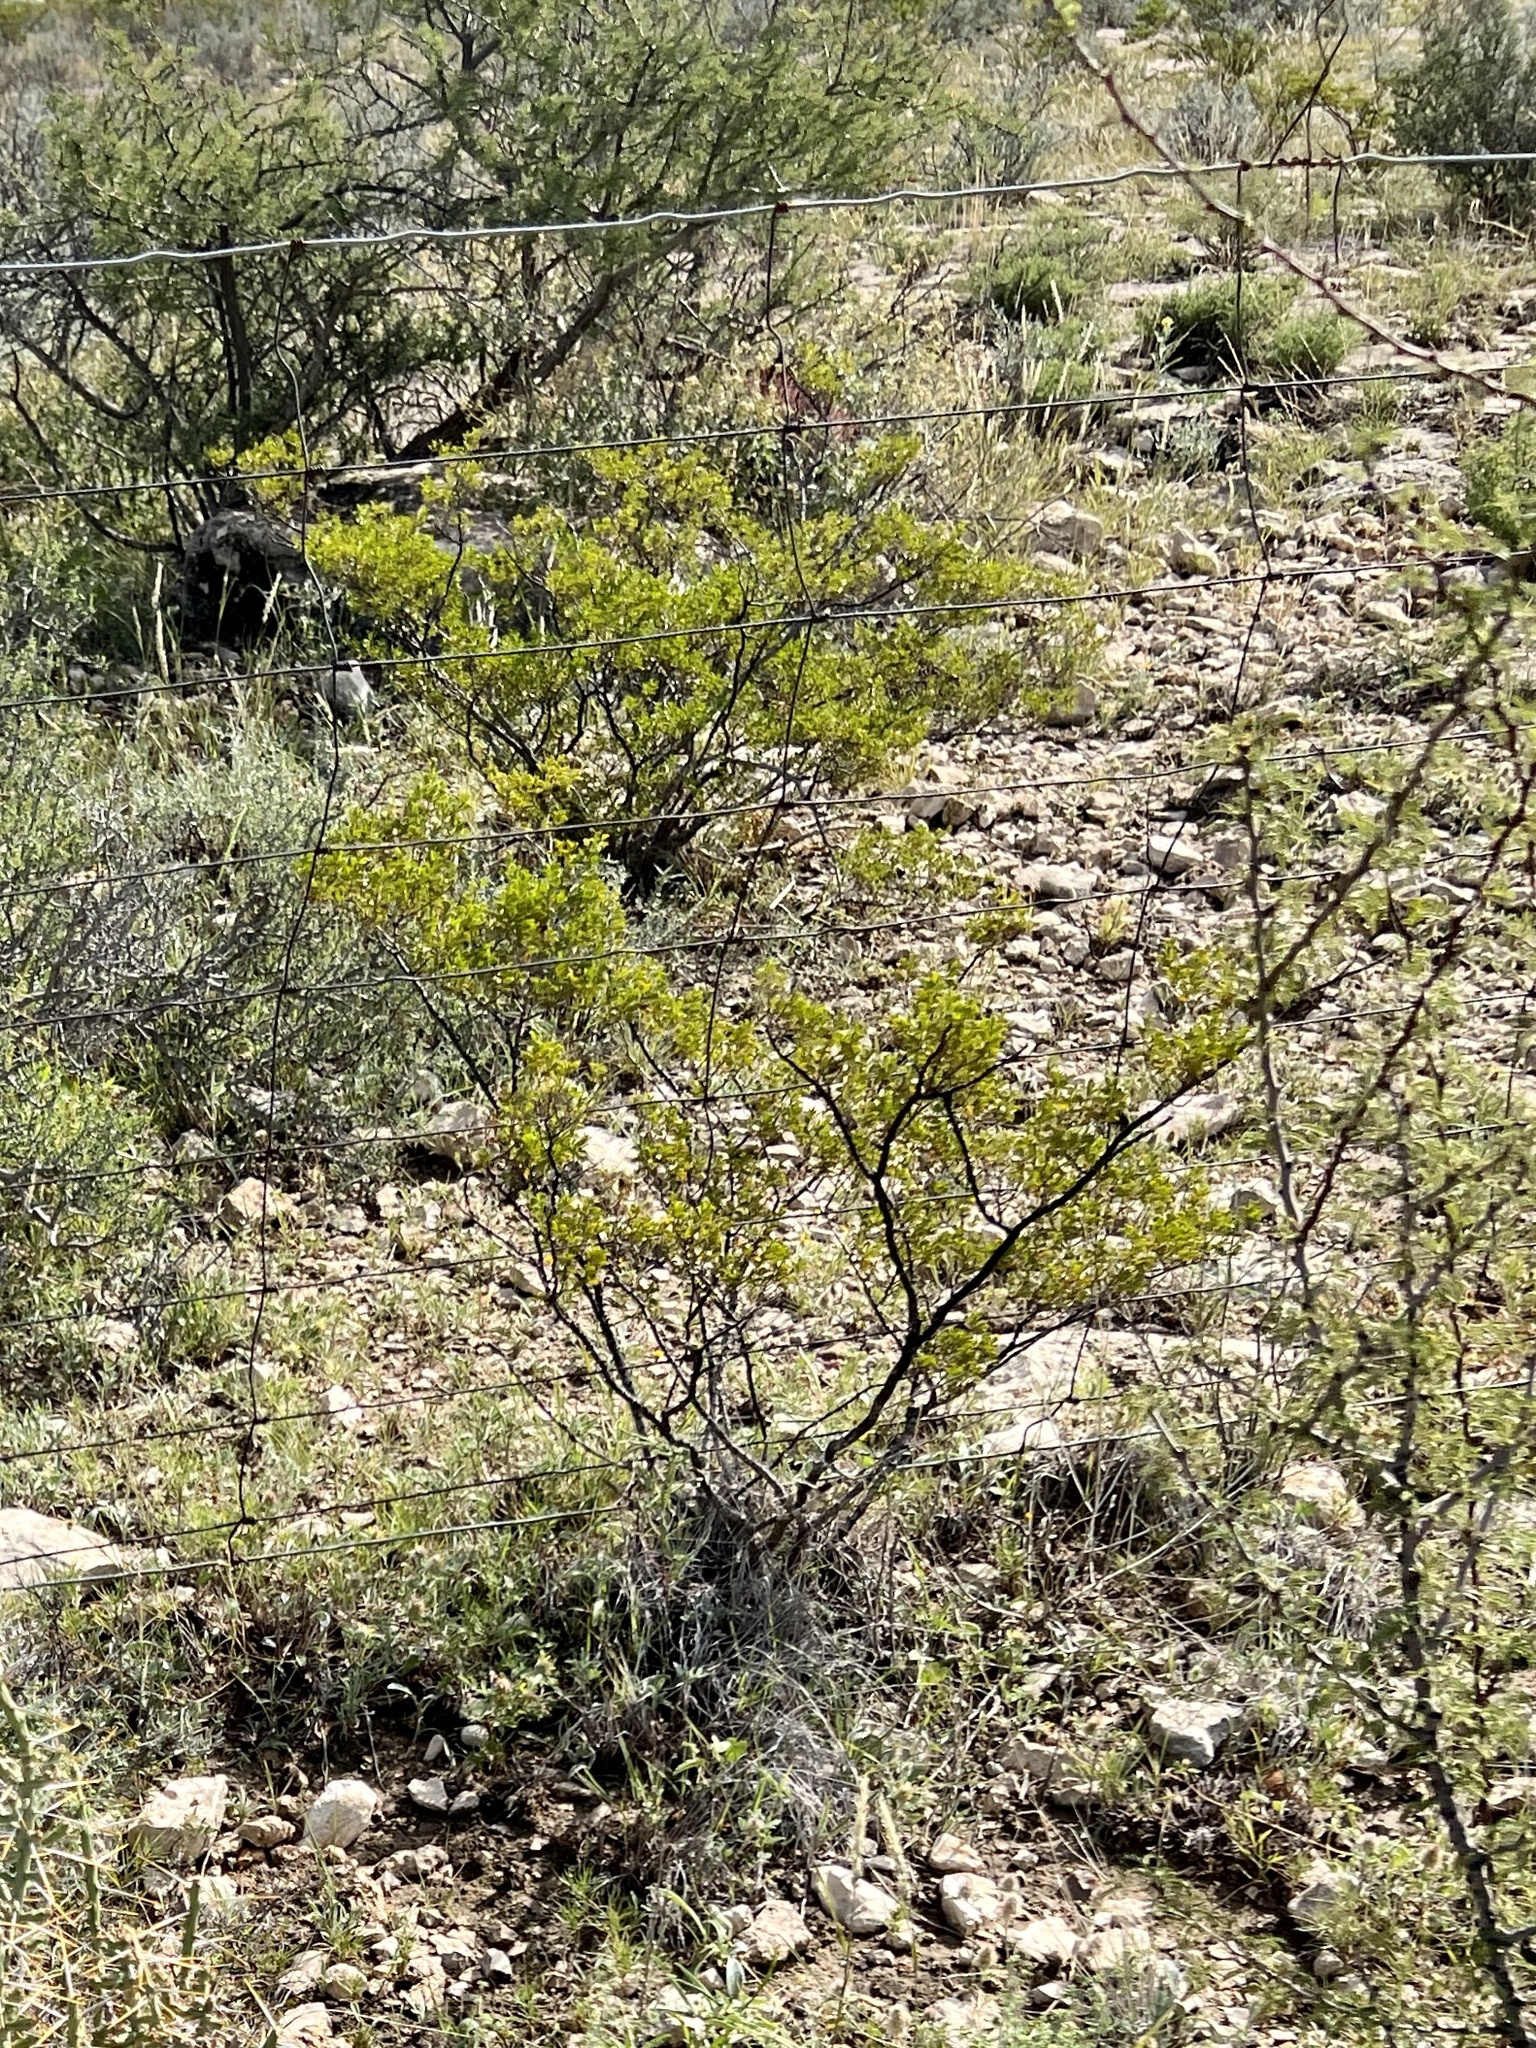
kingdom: Plantae
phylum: Tracheophyta
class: Magnoliopsida
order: Zygophyllales
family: Zygophyllaceae
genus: Larrea
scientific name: Larrea tridentata
